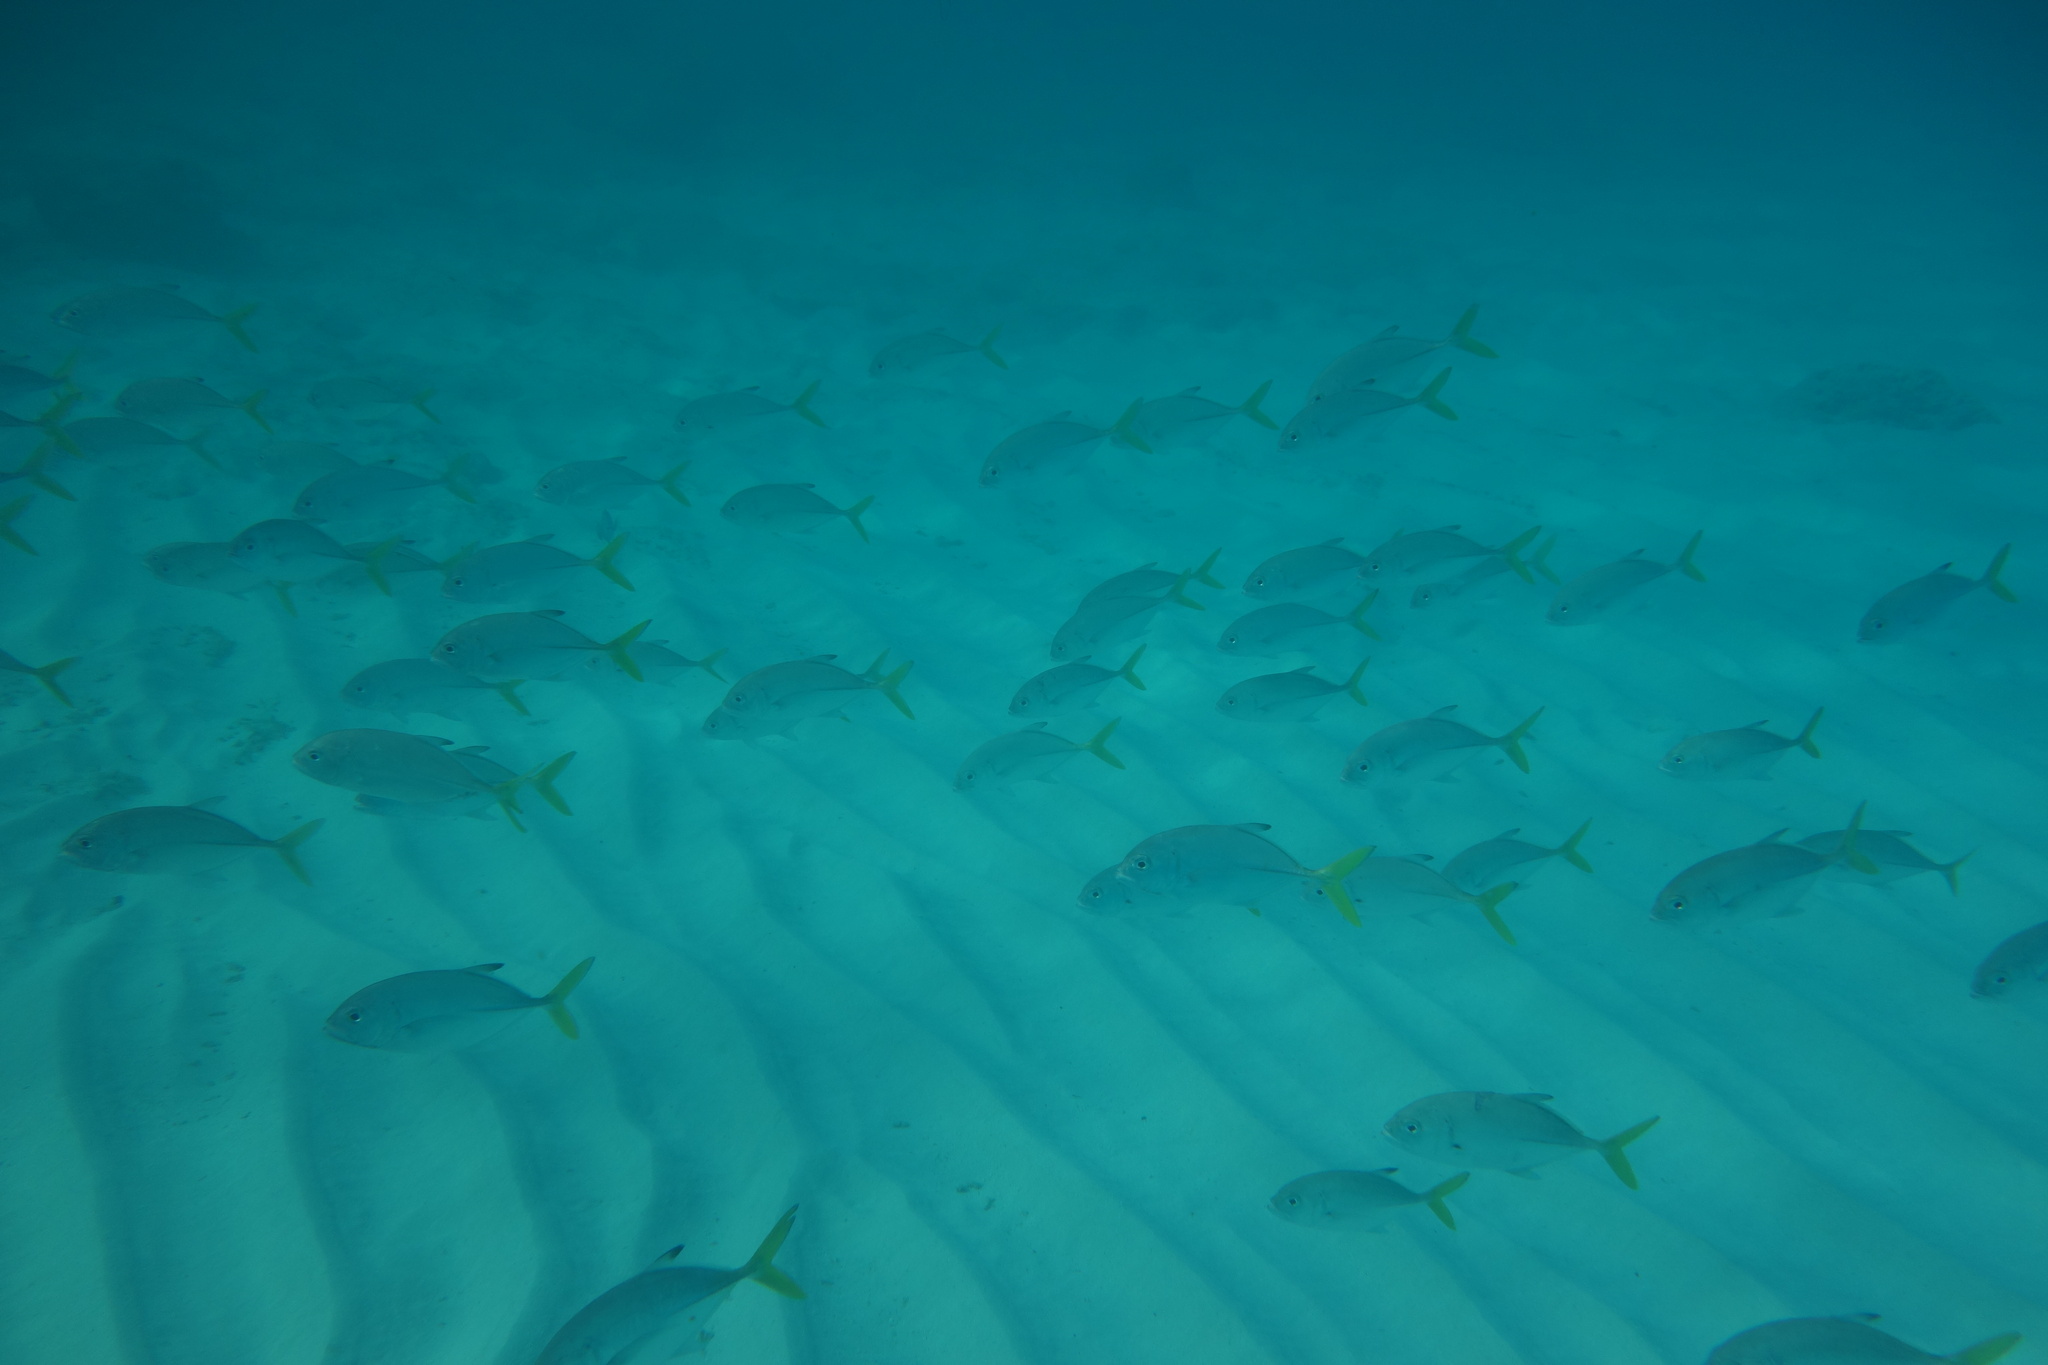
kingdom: Animalia
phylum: Chordata
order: Perciformes
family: Carangidae
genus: Caranx
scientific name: Caranx latus
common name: Horse eye jack
